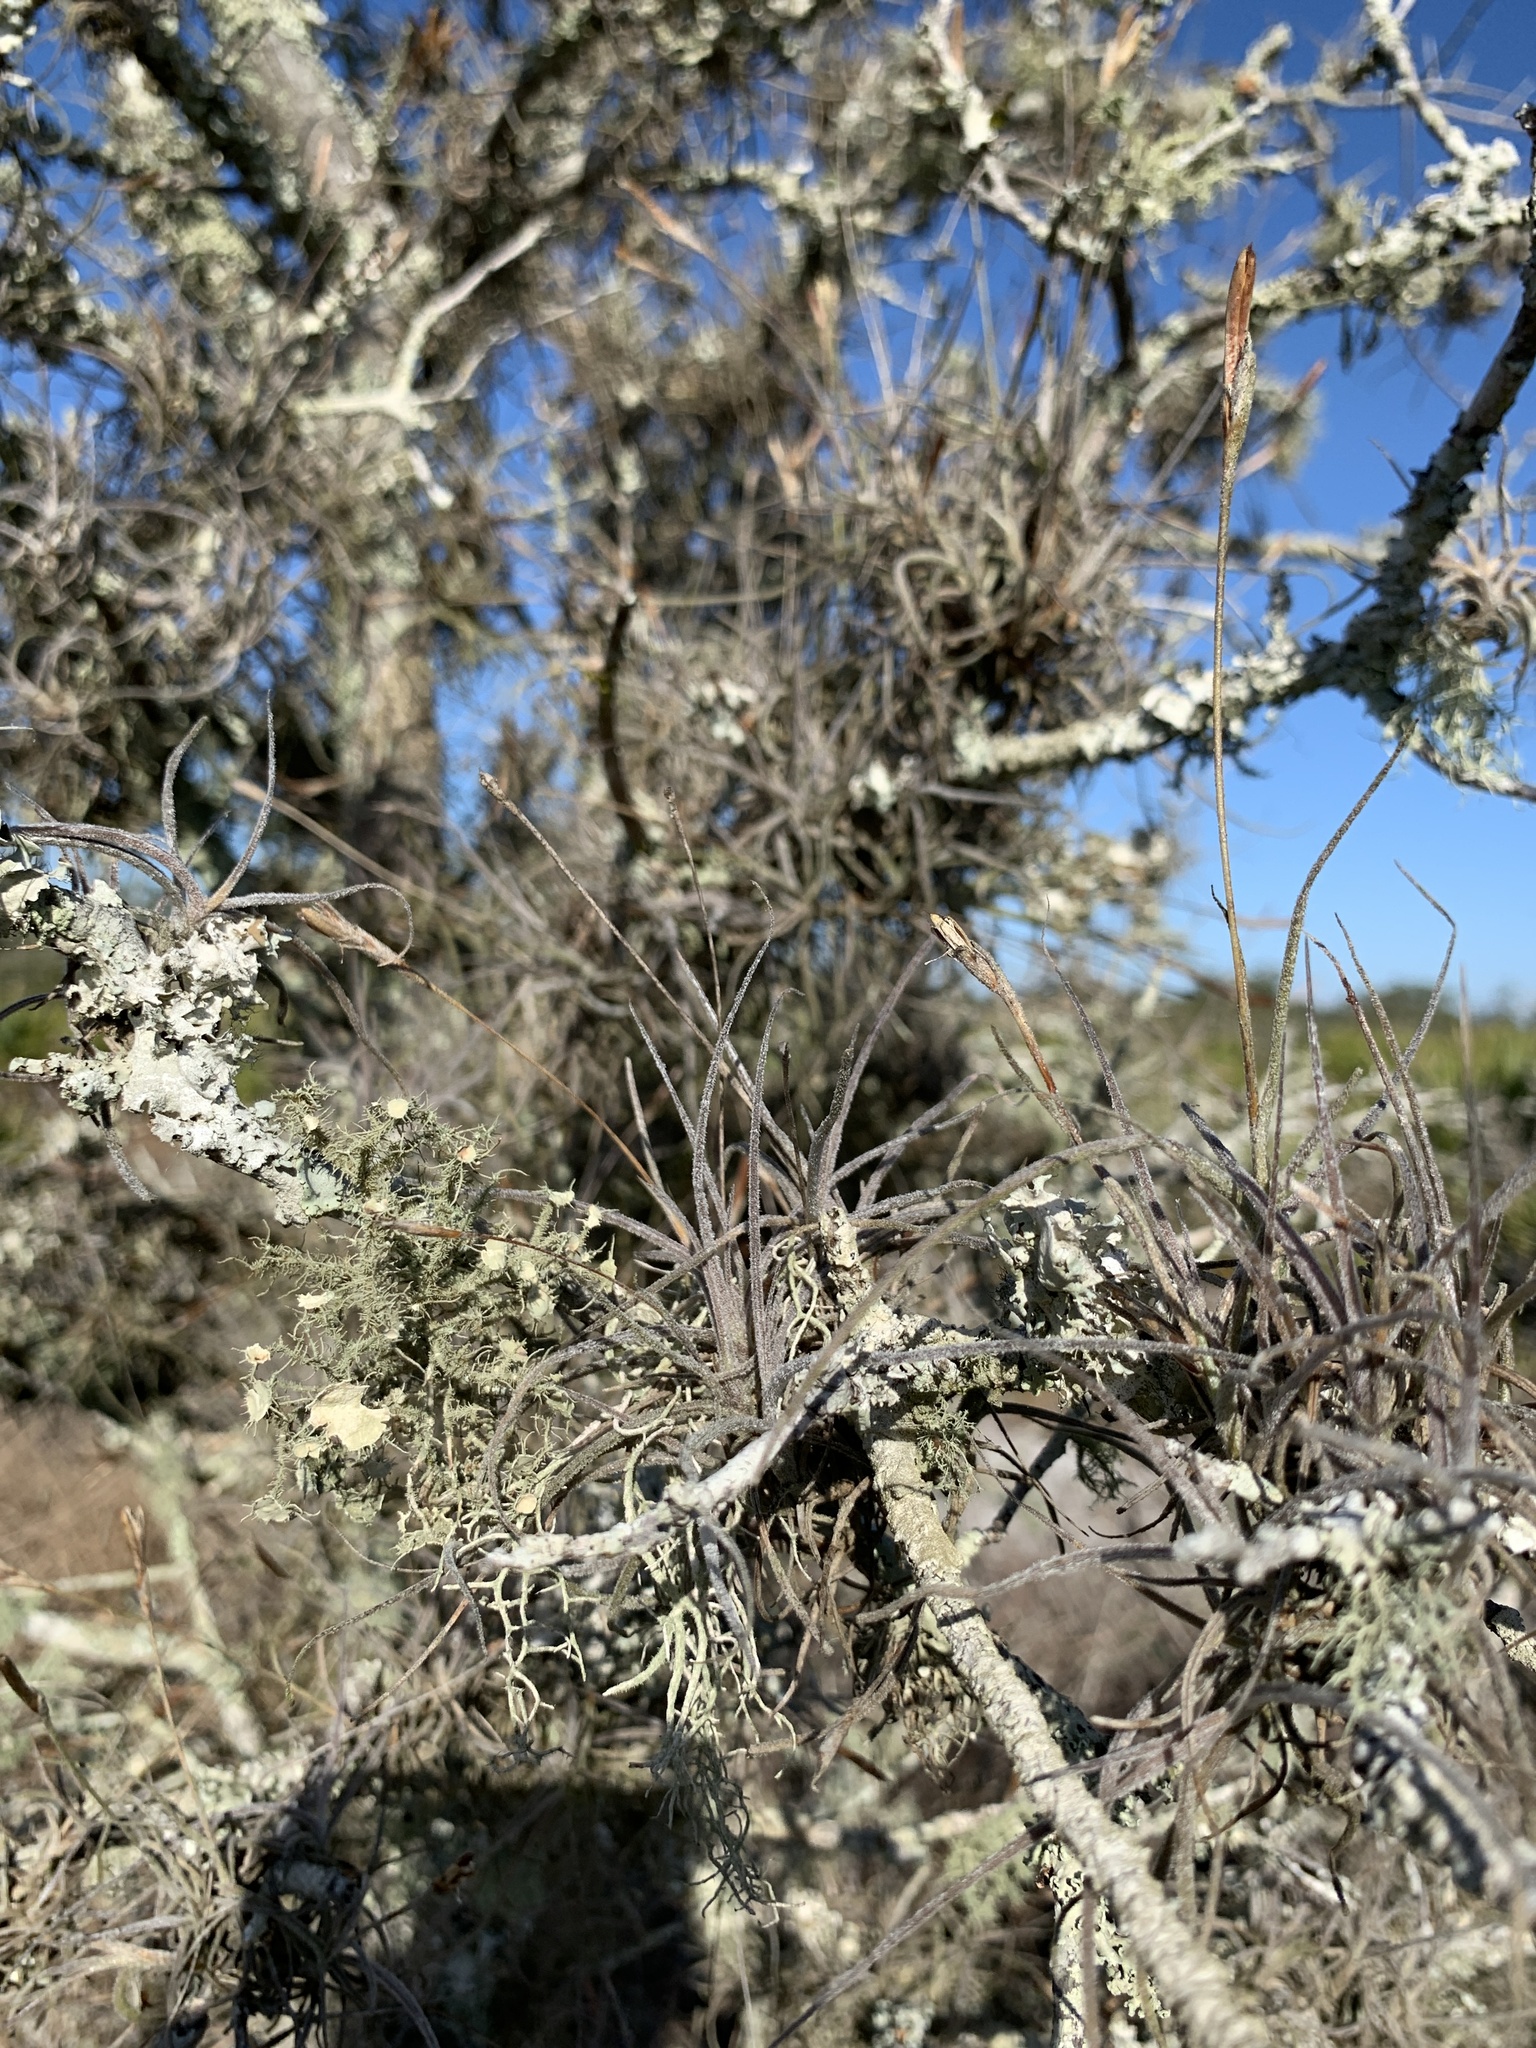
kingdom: Plantae
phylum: Tracheophyta
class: Liliopsida
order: Poales
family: Bromeliaceae
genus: Tillandsia
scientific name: Tillandsia recurvata
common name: Small ballmoss
